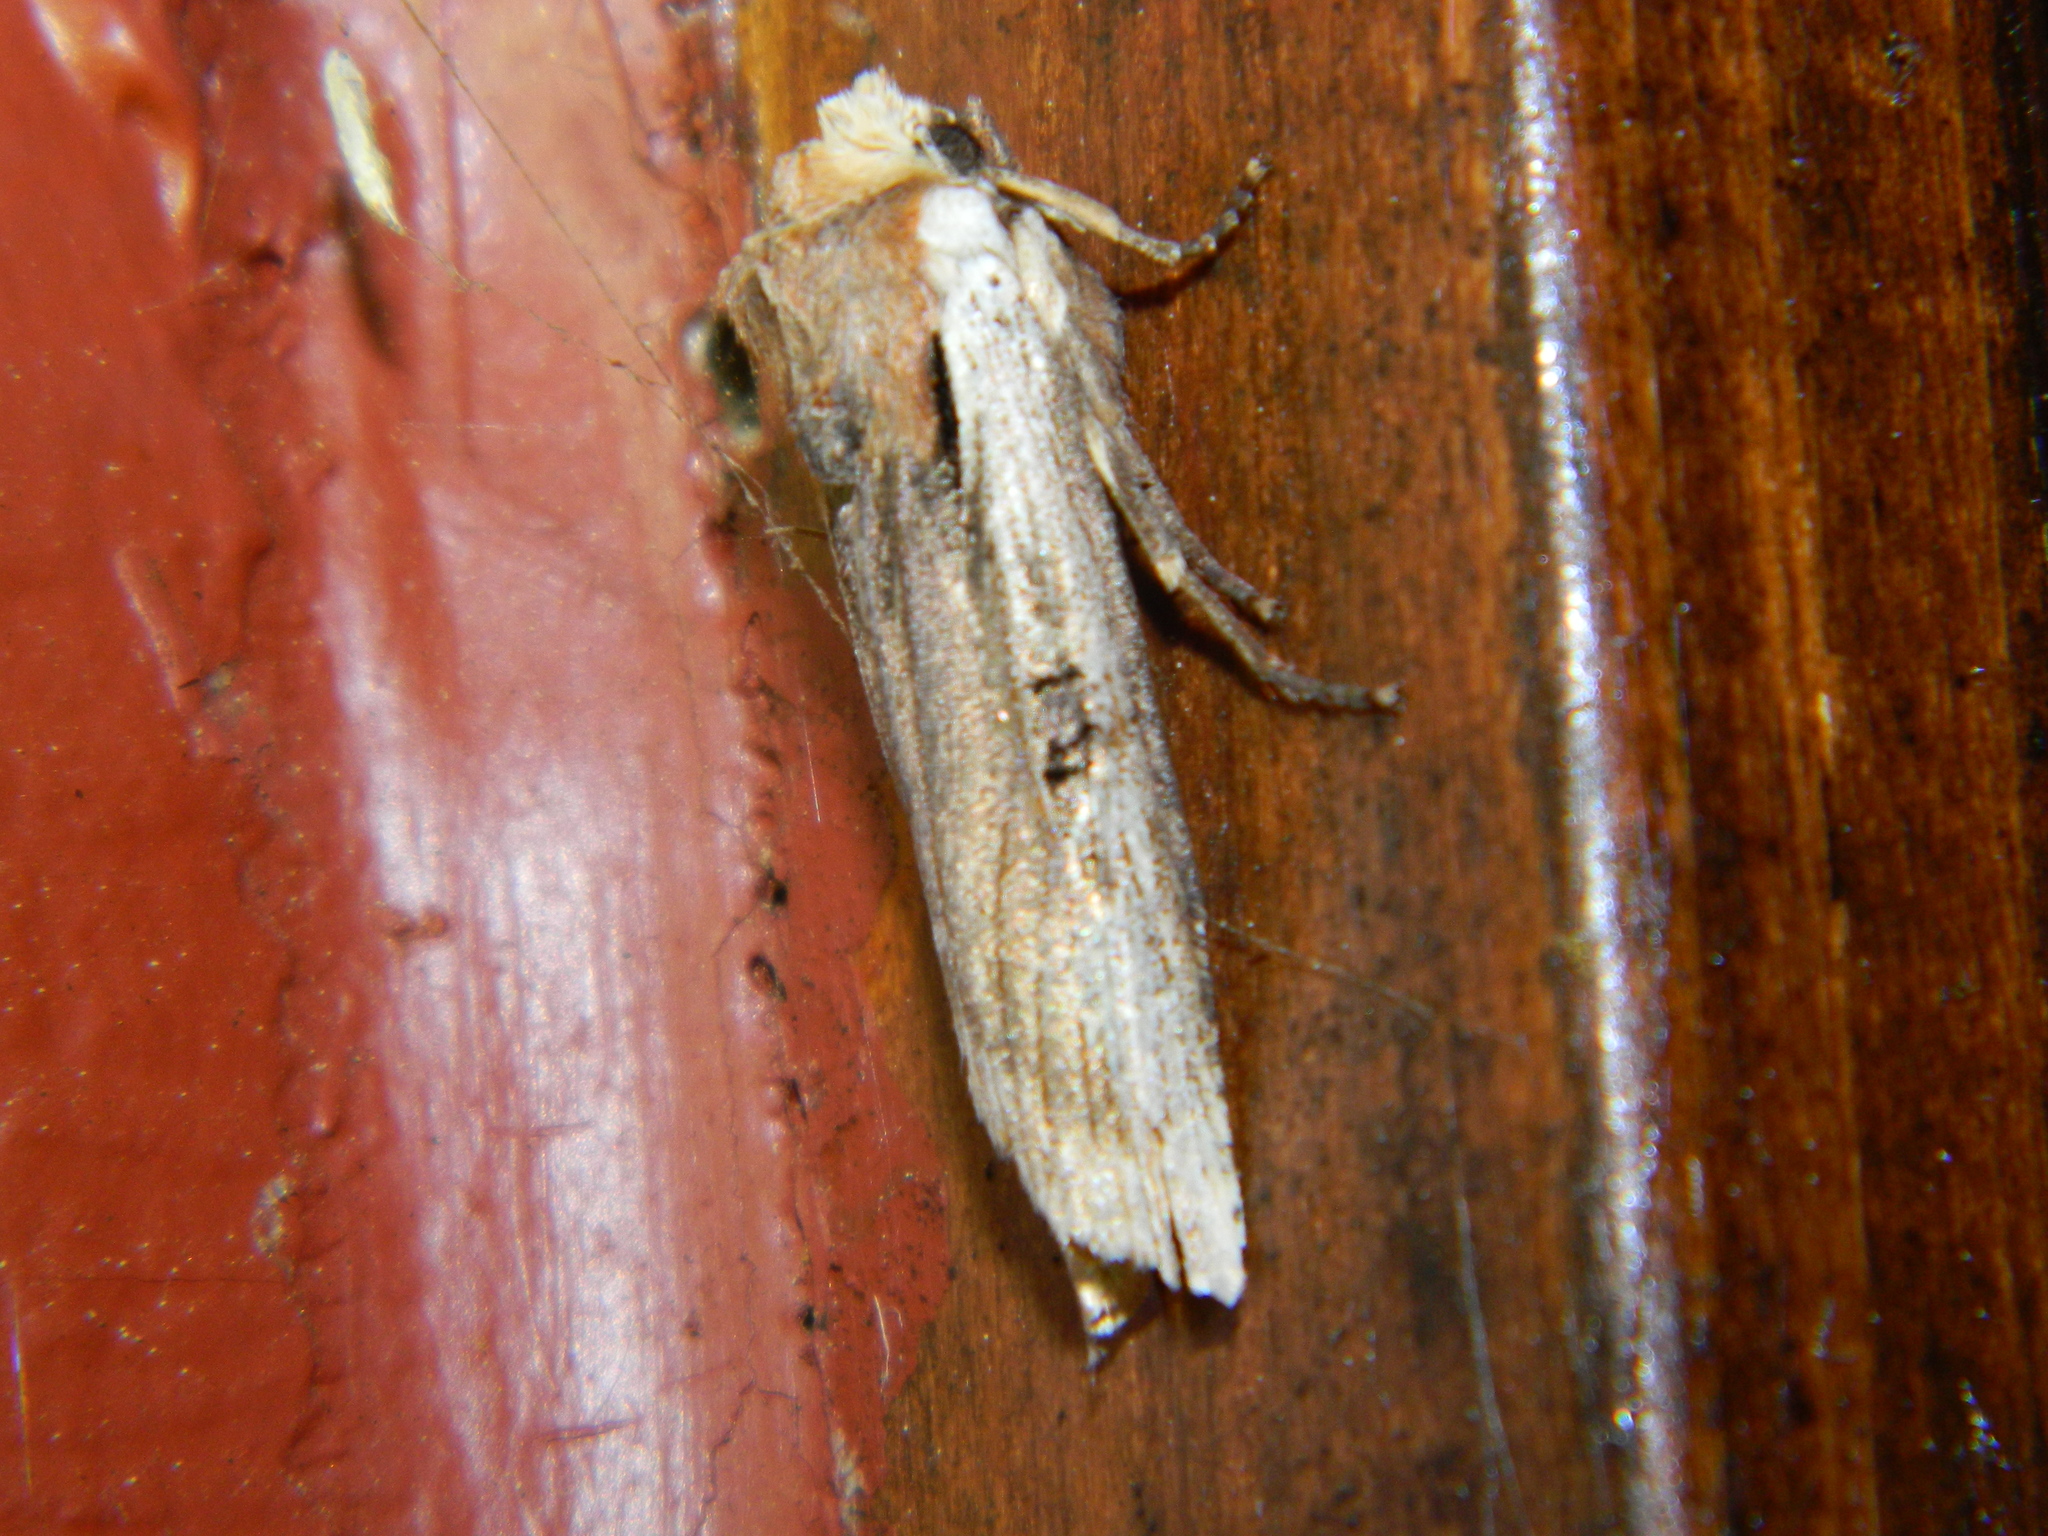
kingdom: Animalia
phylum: Arthropoda
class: Insecta
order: Lepidoptera
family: Noctuidae
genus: Xylena
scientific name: Xylena curvimacula
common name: Dot-and-dash swordgrass moth
